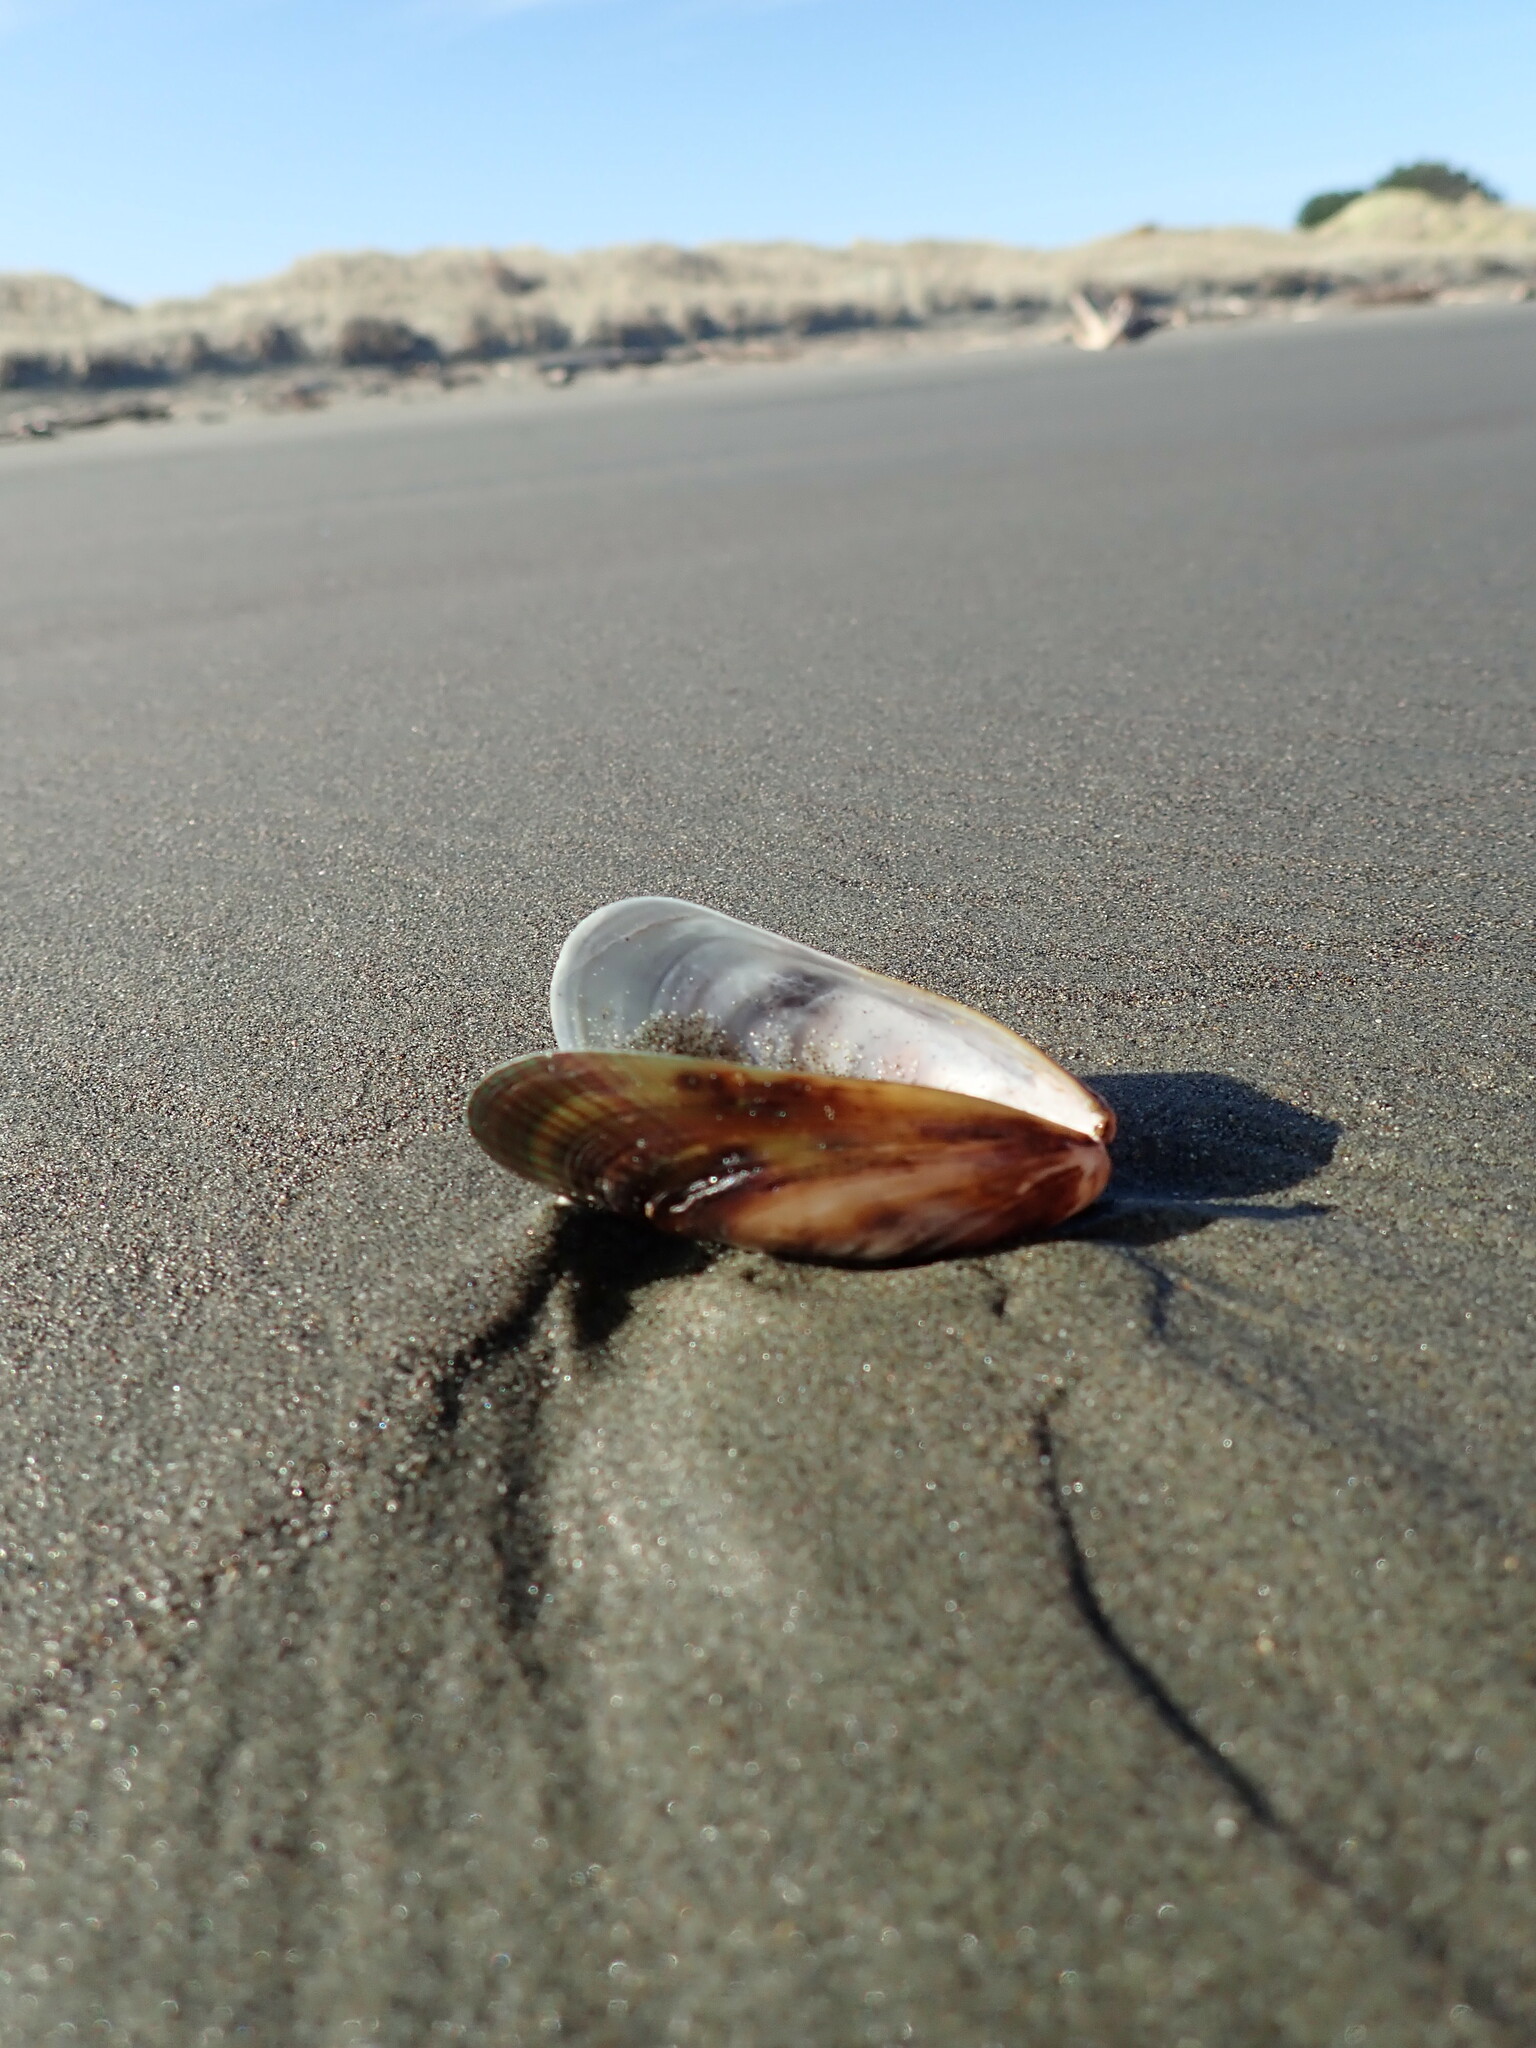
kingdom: Animalia
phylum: Mollusca
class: Bivalvia
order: Mytilida
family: Mytilidae
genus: Perna
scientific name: Perna canaliculus
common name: New zealand greenshelltm
